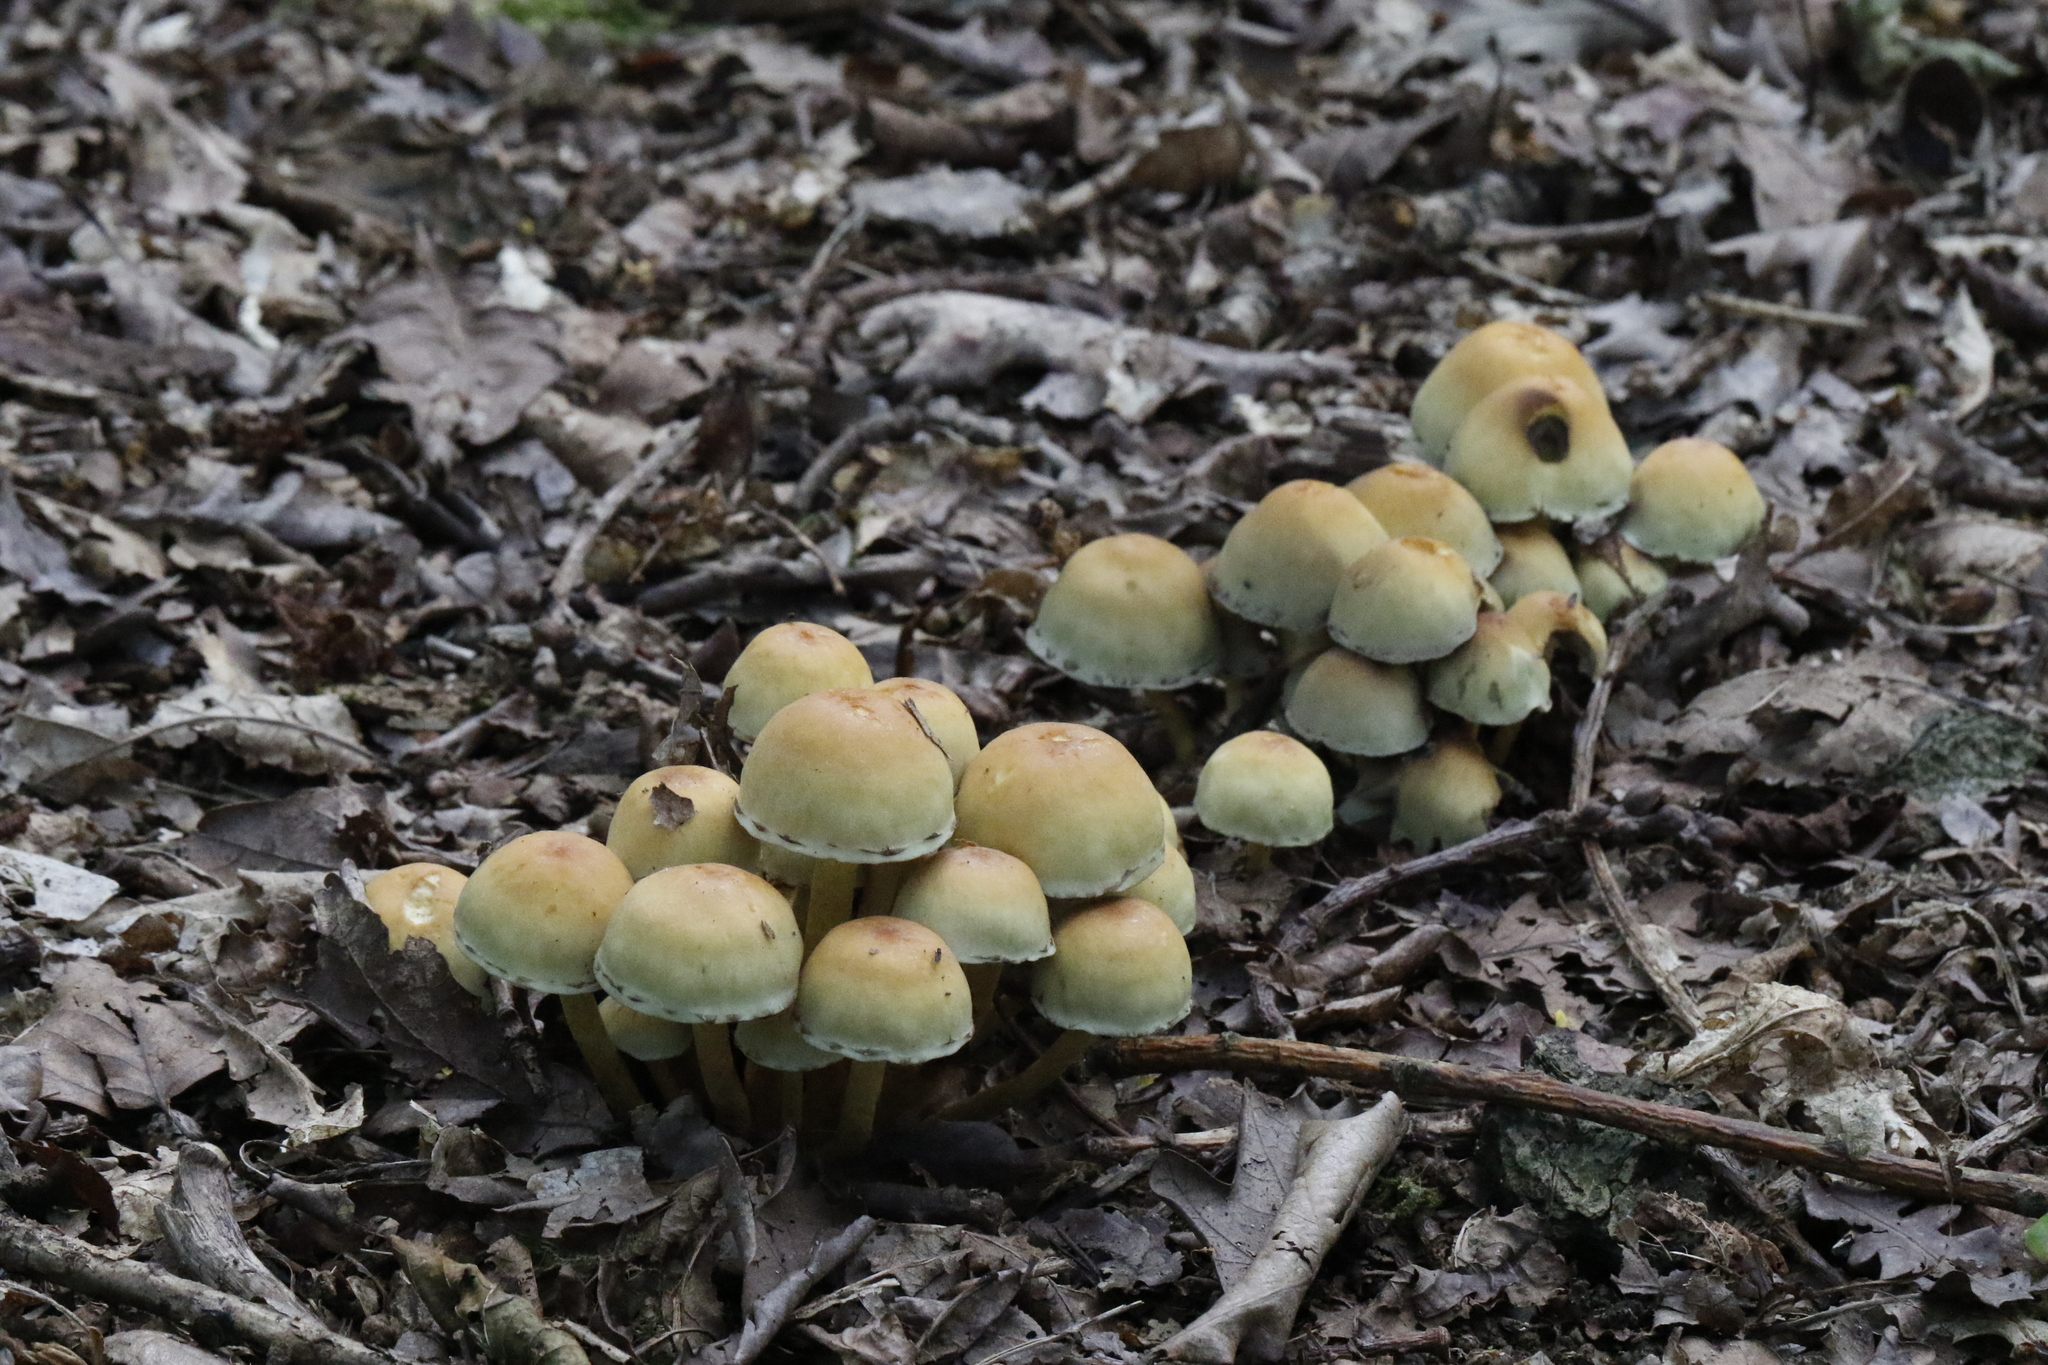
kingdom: Fungi
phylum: Basidiomycota
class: Agaricomycetes
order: Agaricales
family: Strophariaceae
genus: Hypholoma
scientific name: Hypholoma fasciculare
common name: Sulphur tuft
